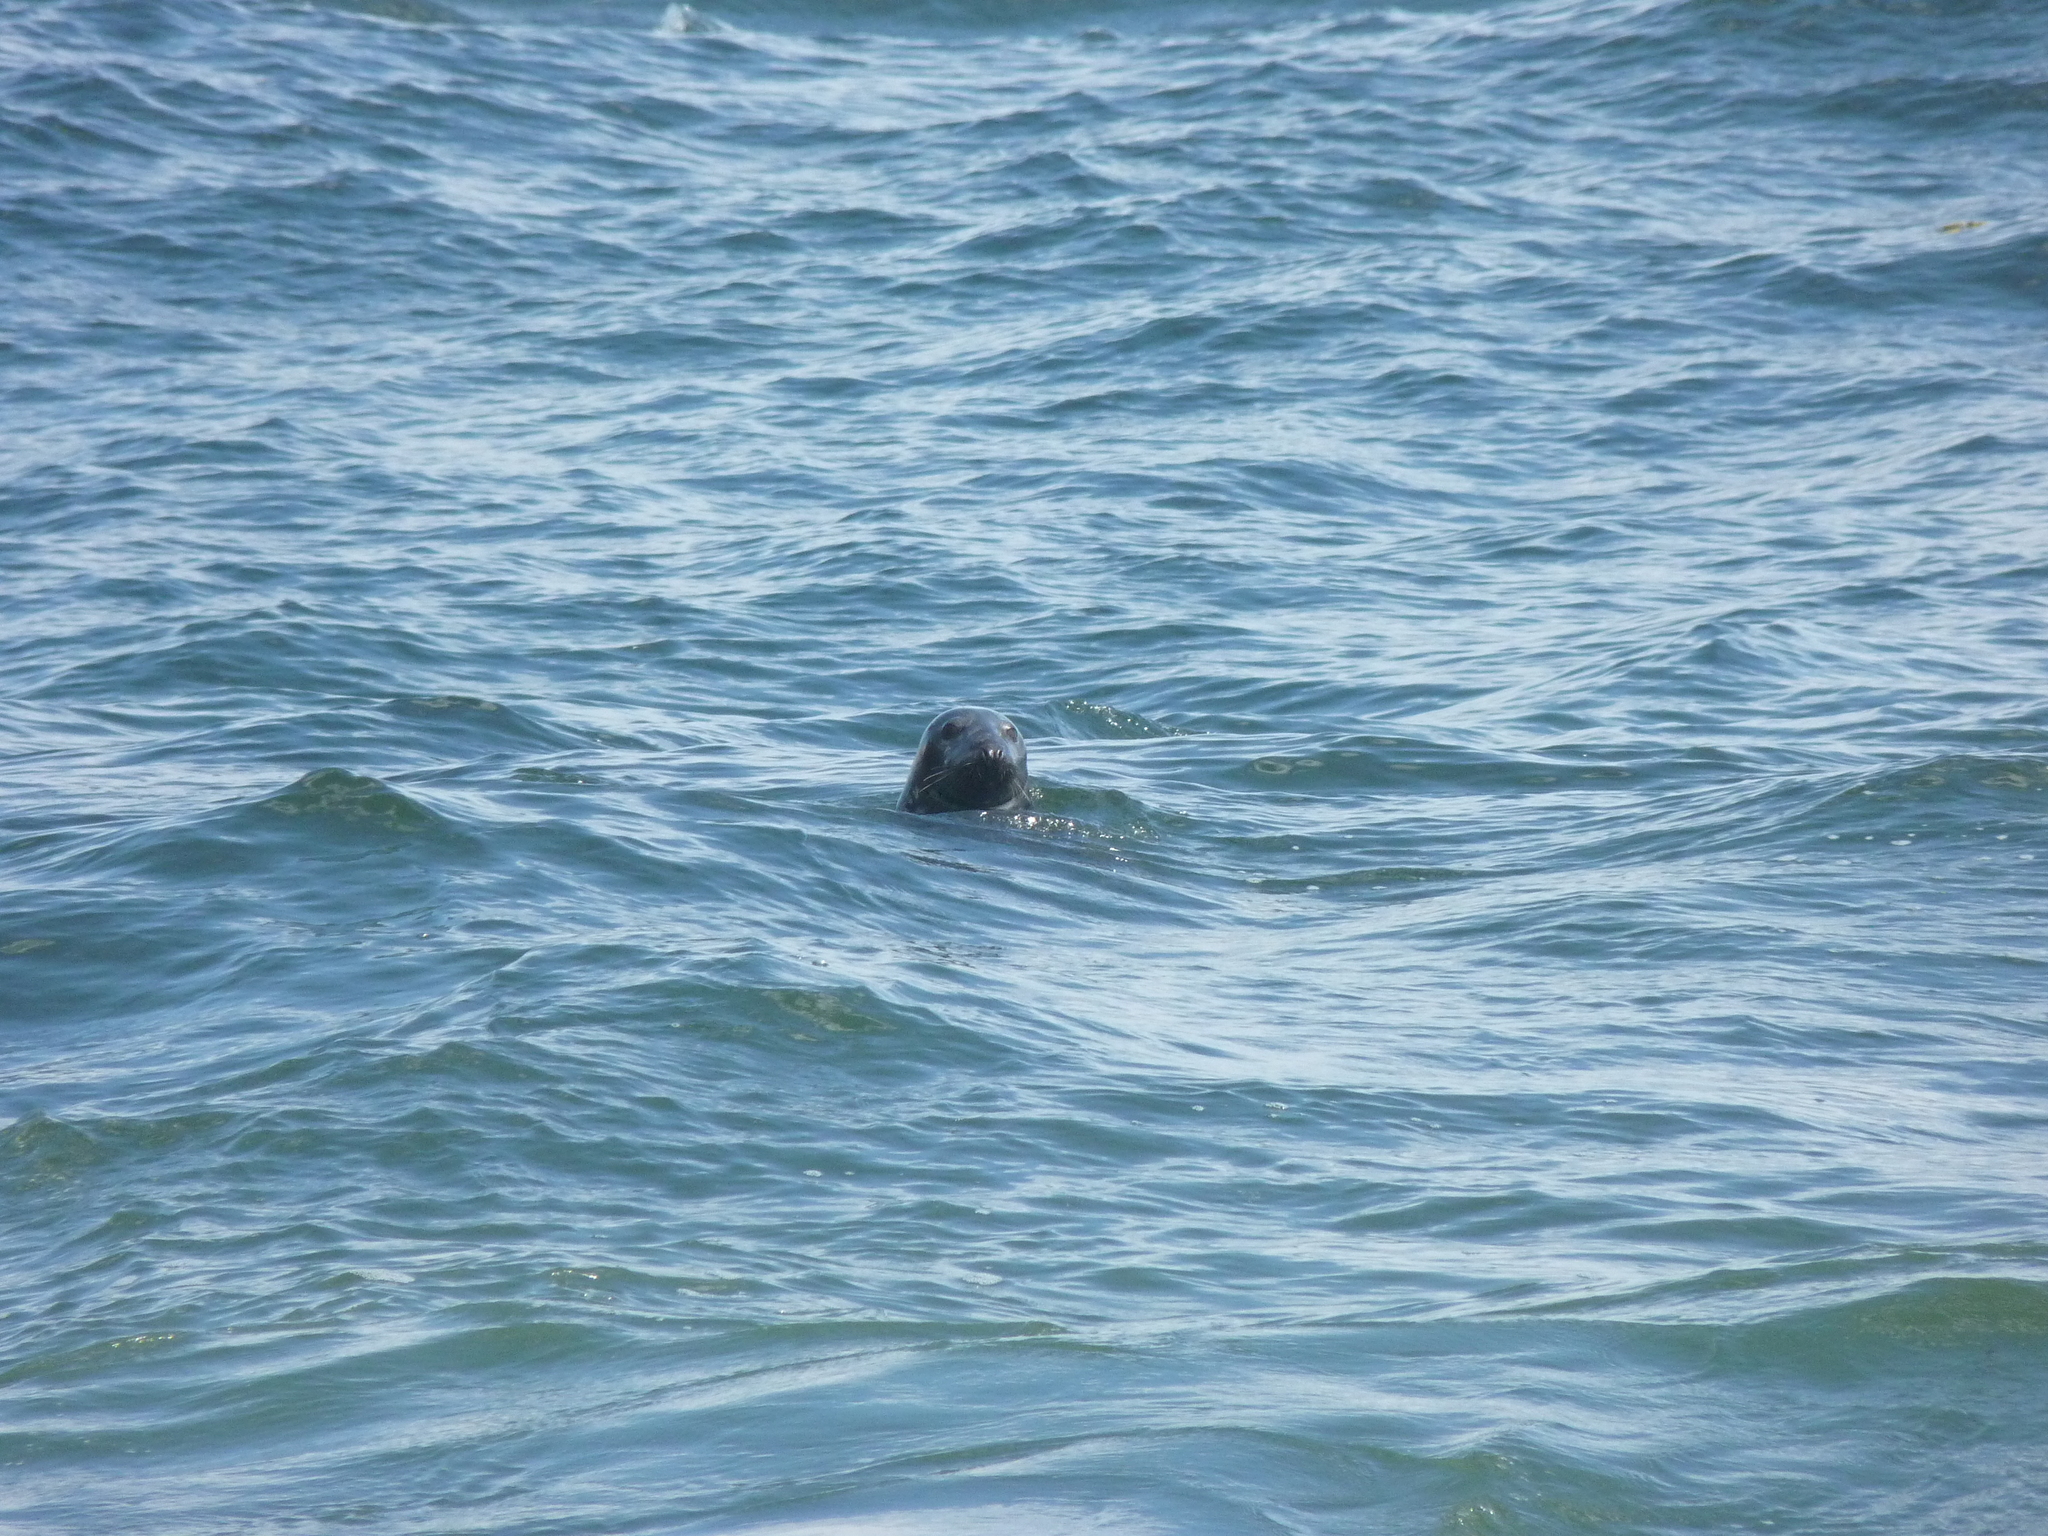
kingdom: Animalia
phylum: Chordata
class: Mammalia
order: Carnivora
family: Phocidae
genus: Halichoerus
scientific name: Halichoerus grypus
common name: Grey seal
